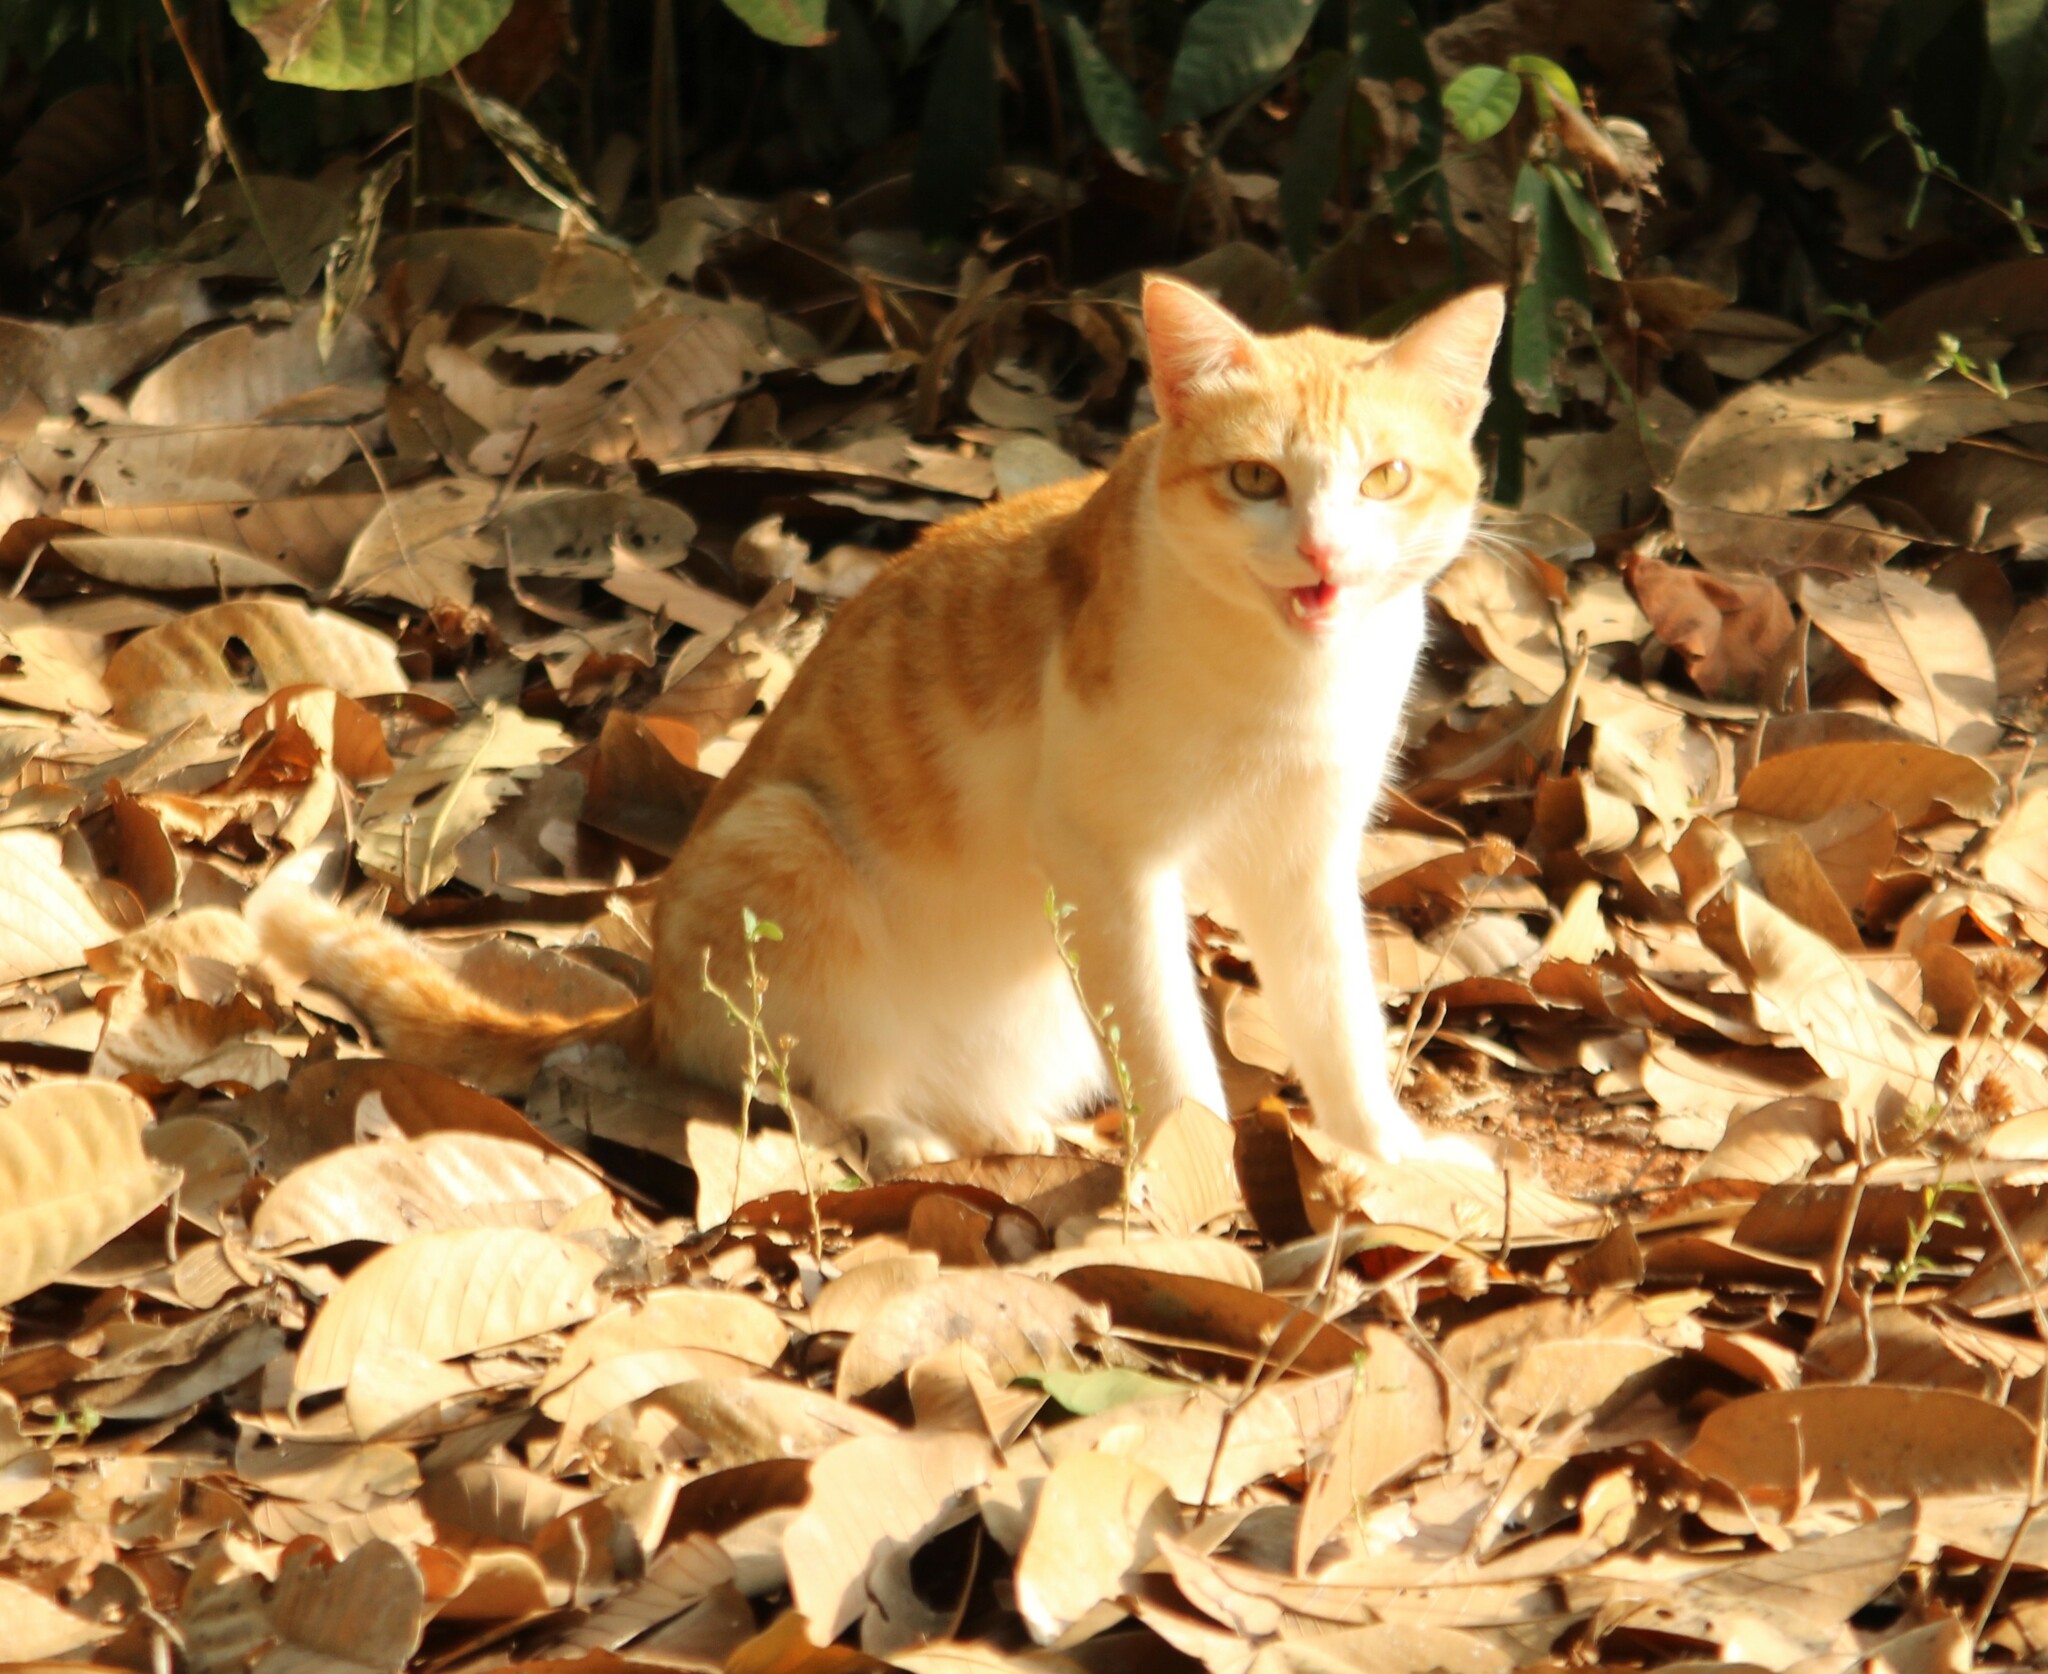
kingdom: Animalia
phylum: Chordata
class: Mammalia
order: Carnivora
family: Felidae
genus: Felis
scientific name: Felis catus
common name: Domestic cat
